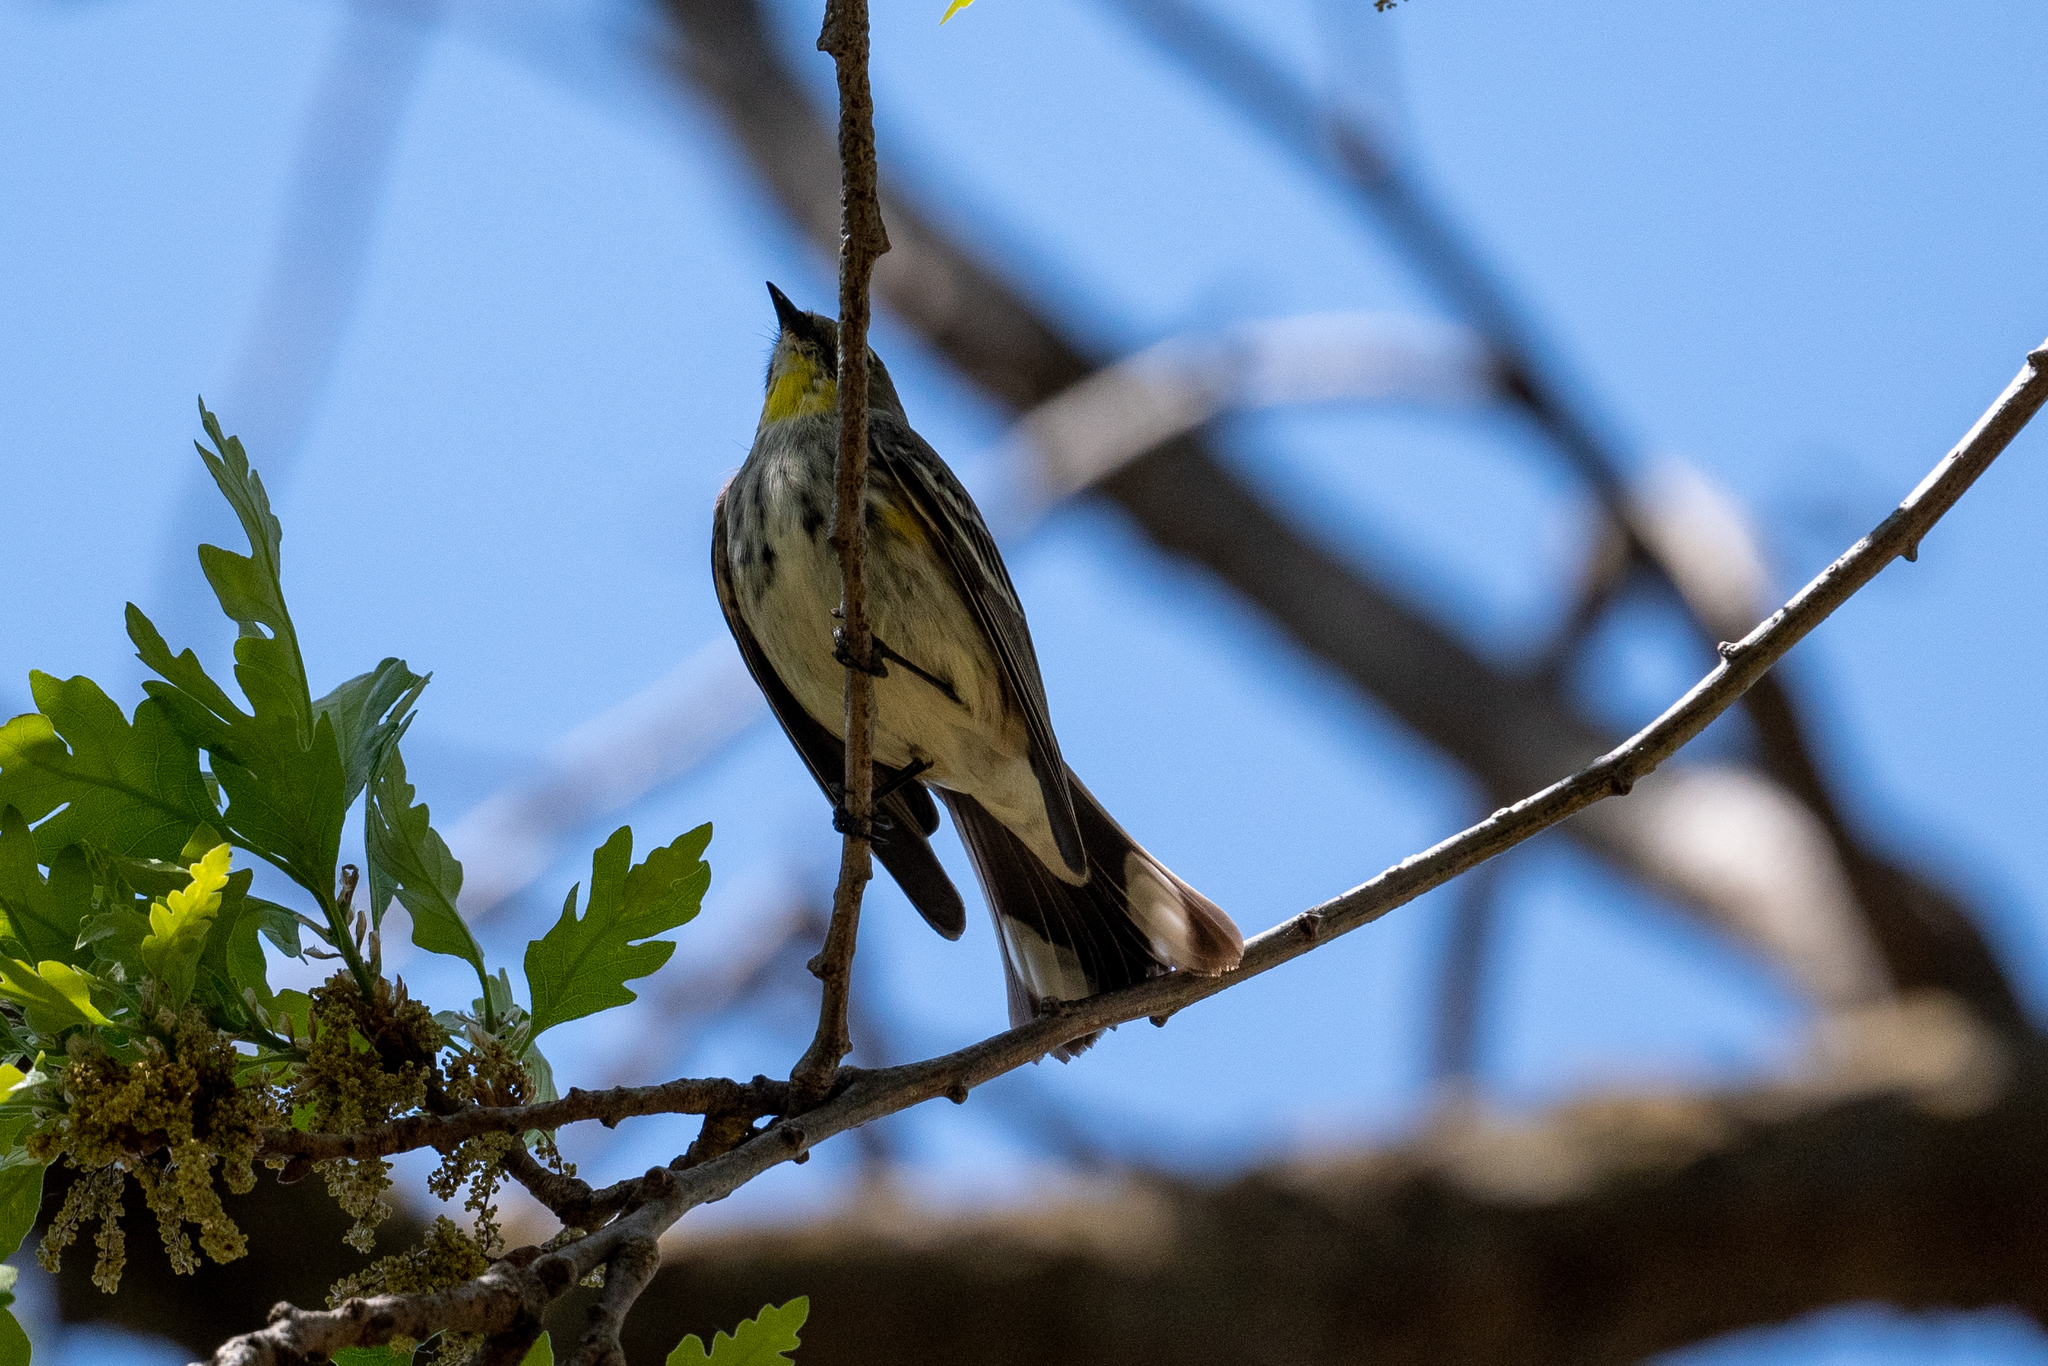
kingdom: Animalia
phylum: Chordata
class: Aves
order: Passeriformes
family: Parulidae
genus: Setophaga
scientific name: Setophaga coronata
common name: Myrtle warbler
